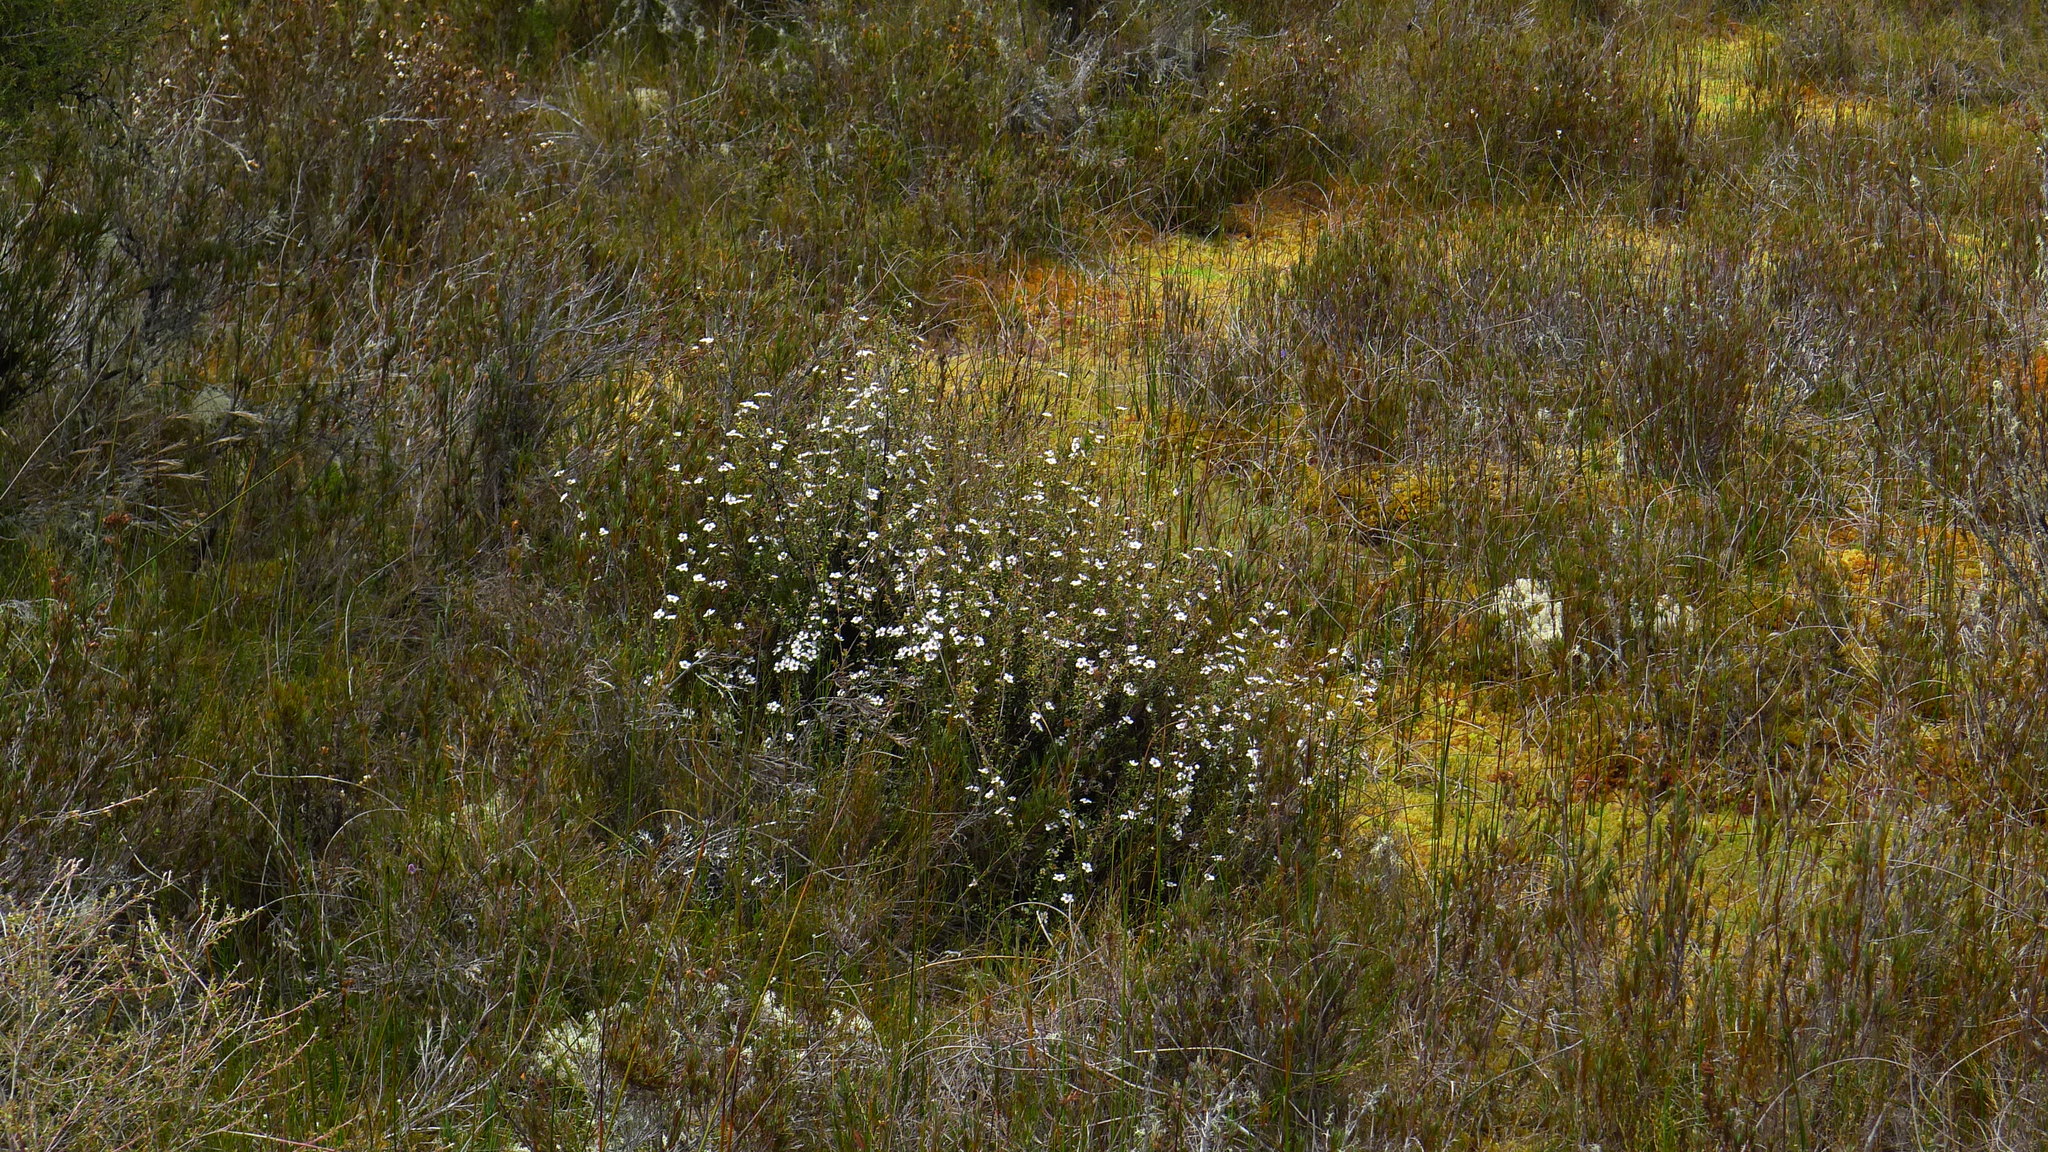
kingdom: Plantae
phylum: Tracheophyta
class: Magnoliopsida
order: Myrtales
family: Myrtaceae
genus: Leptospermum
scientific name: Leptospermum scoparium
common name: Broom tea-tree
